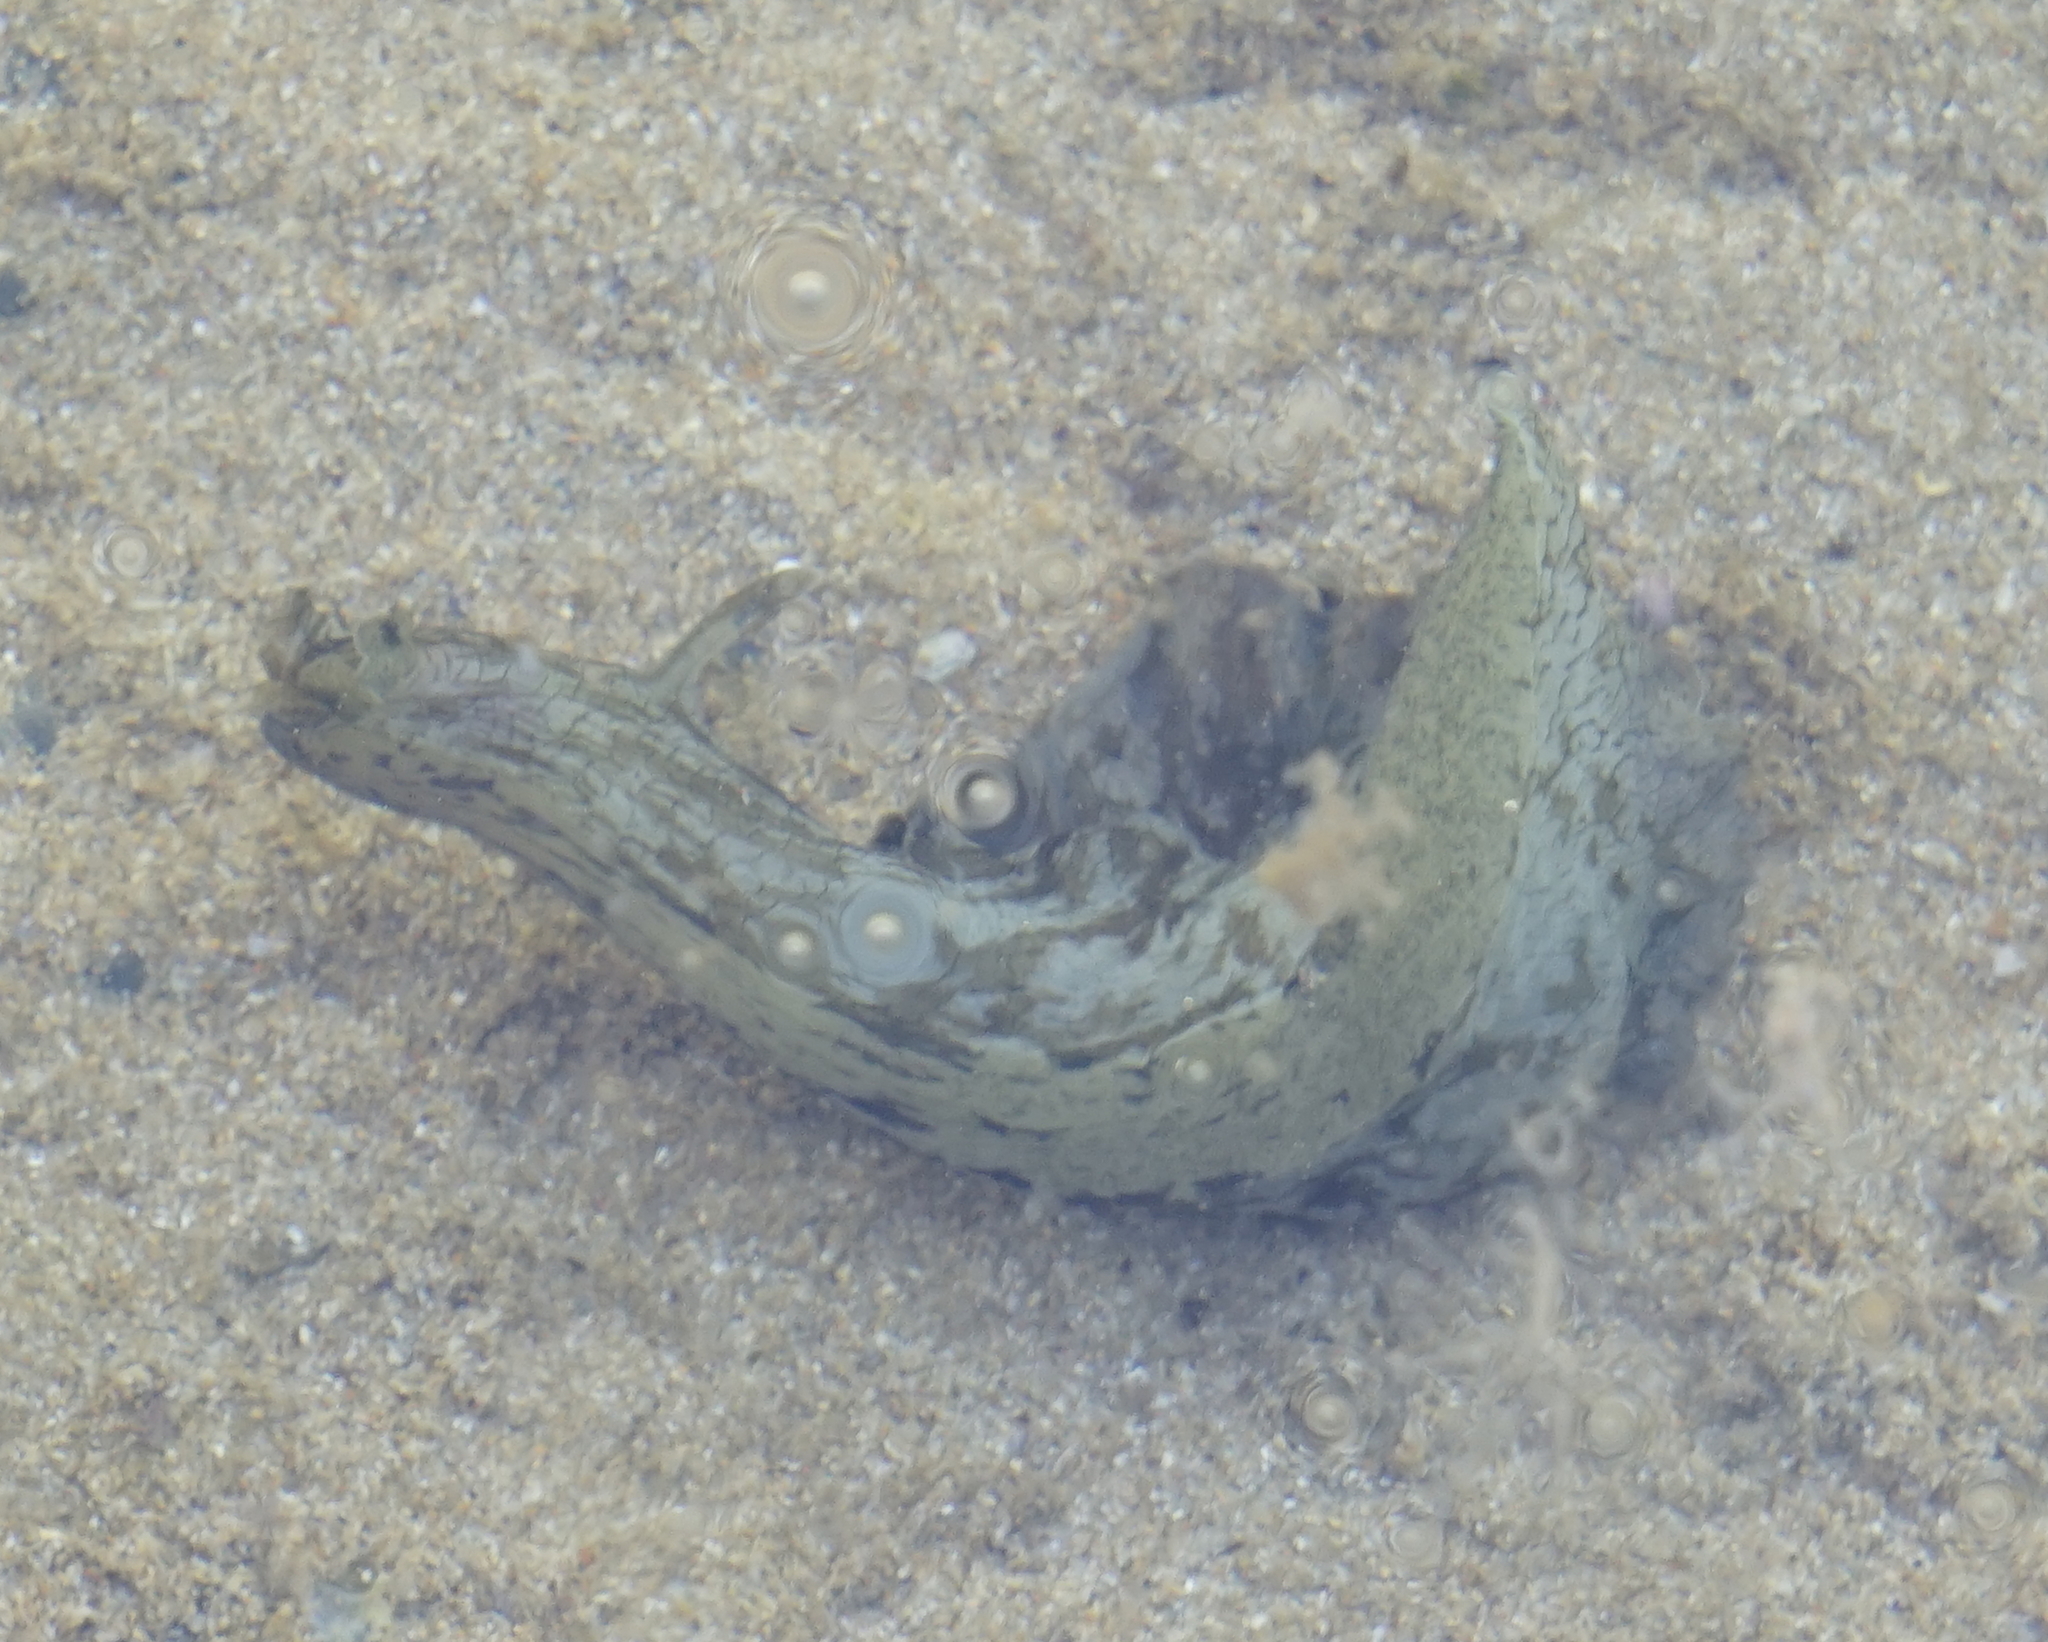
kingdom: Animalia
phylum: Mollusca
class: Gastropoda
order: Aplysiida
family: Aplysiidae
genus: Aplysia
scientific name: Aplysia sydneyensis
